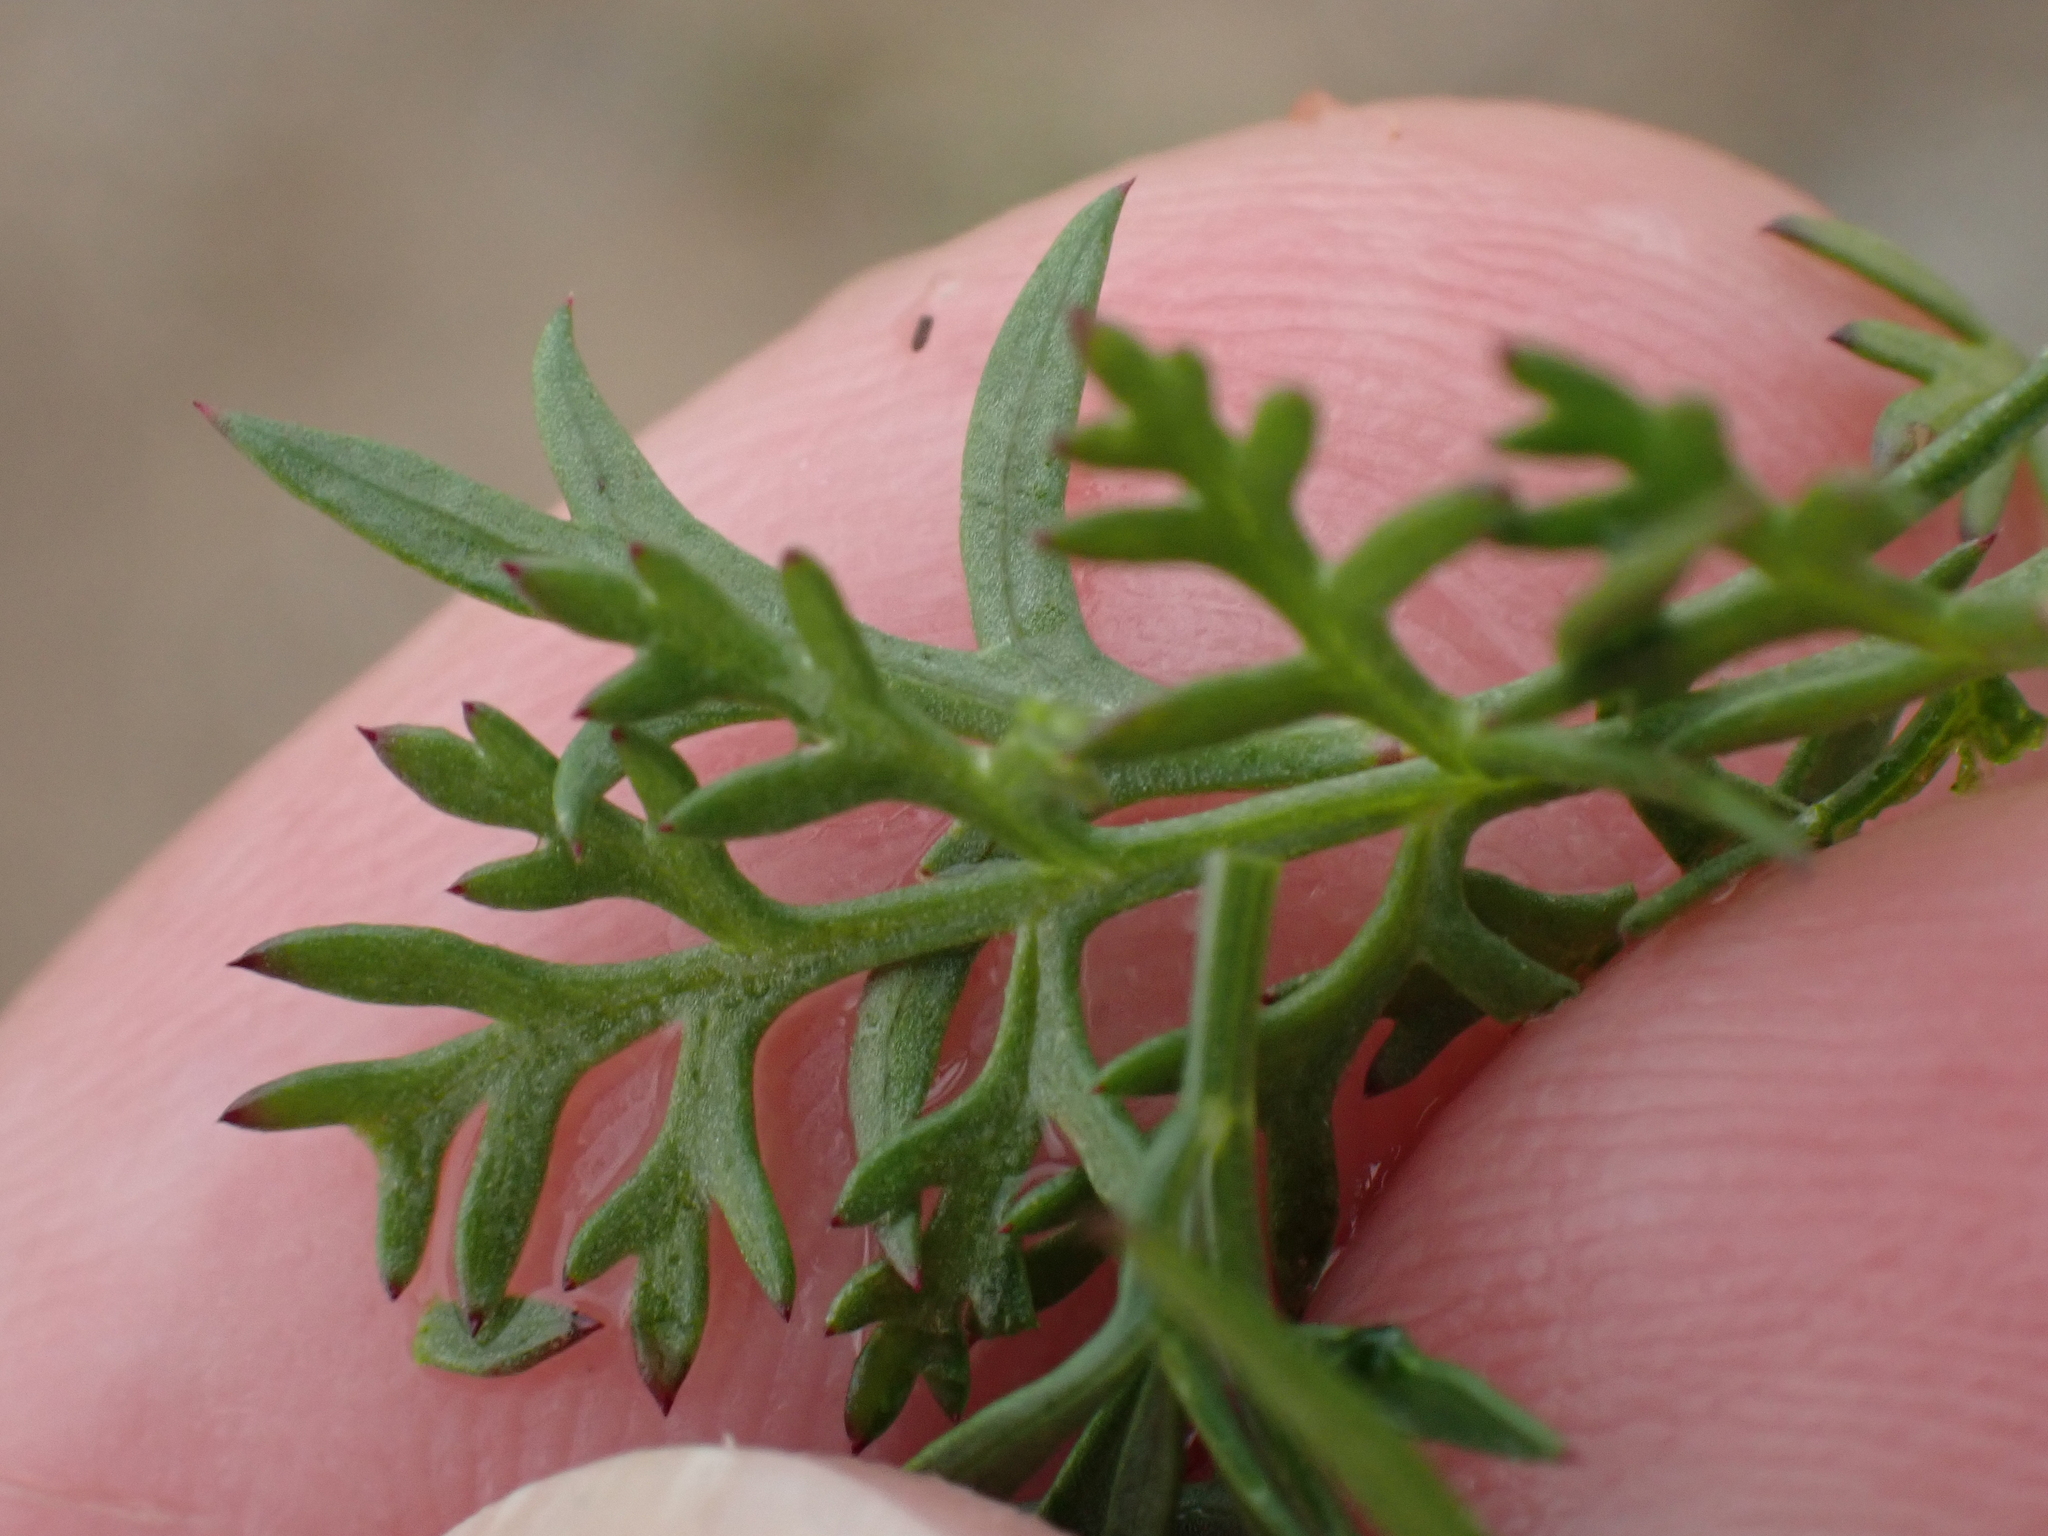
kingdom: Plantae
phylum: Tracheophyta
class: Magnoliopsida
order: Apiales
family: Apiaceae
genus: Daucus
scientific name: Daucus carota
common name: Wild carrot
